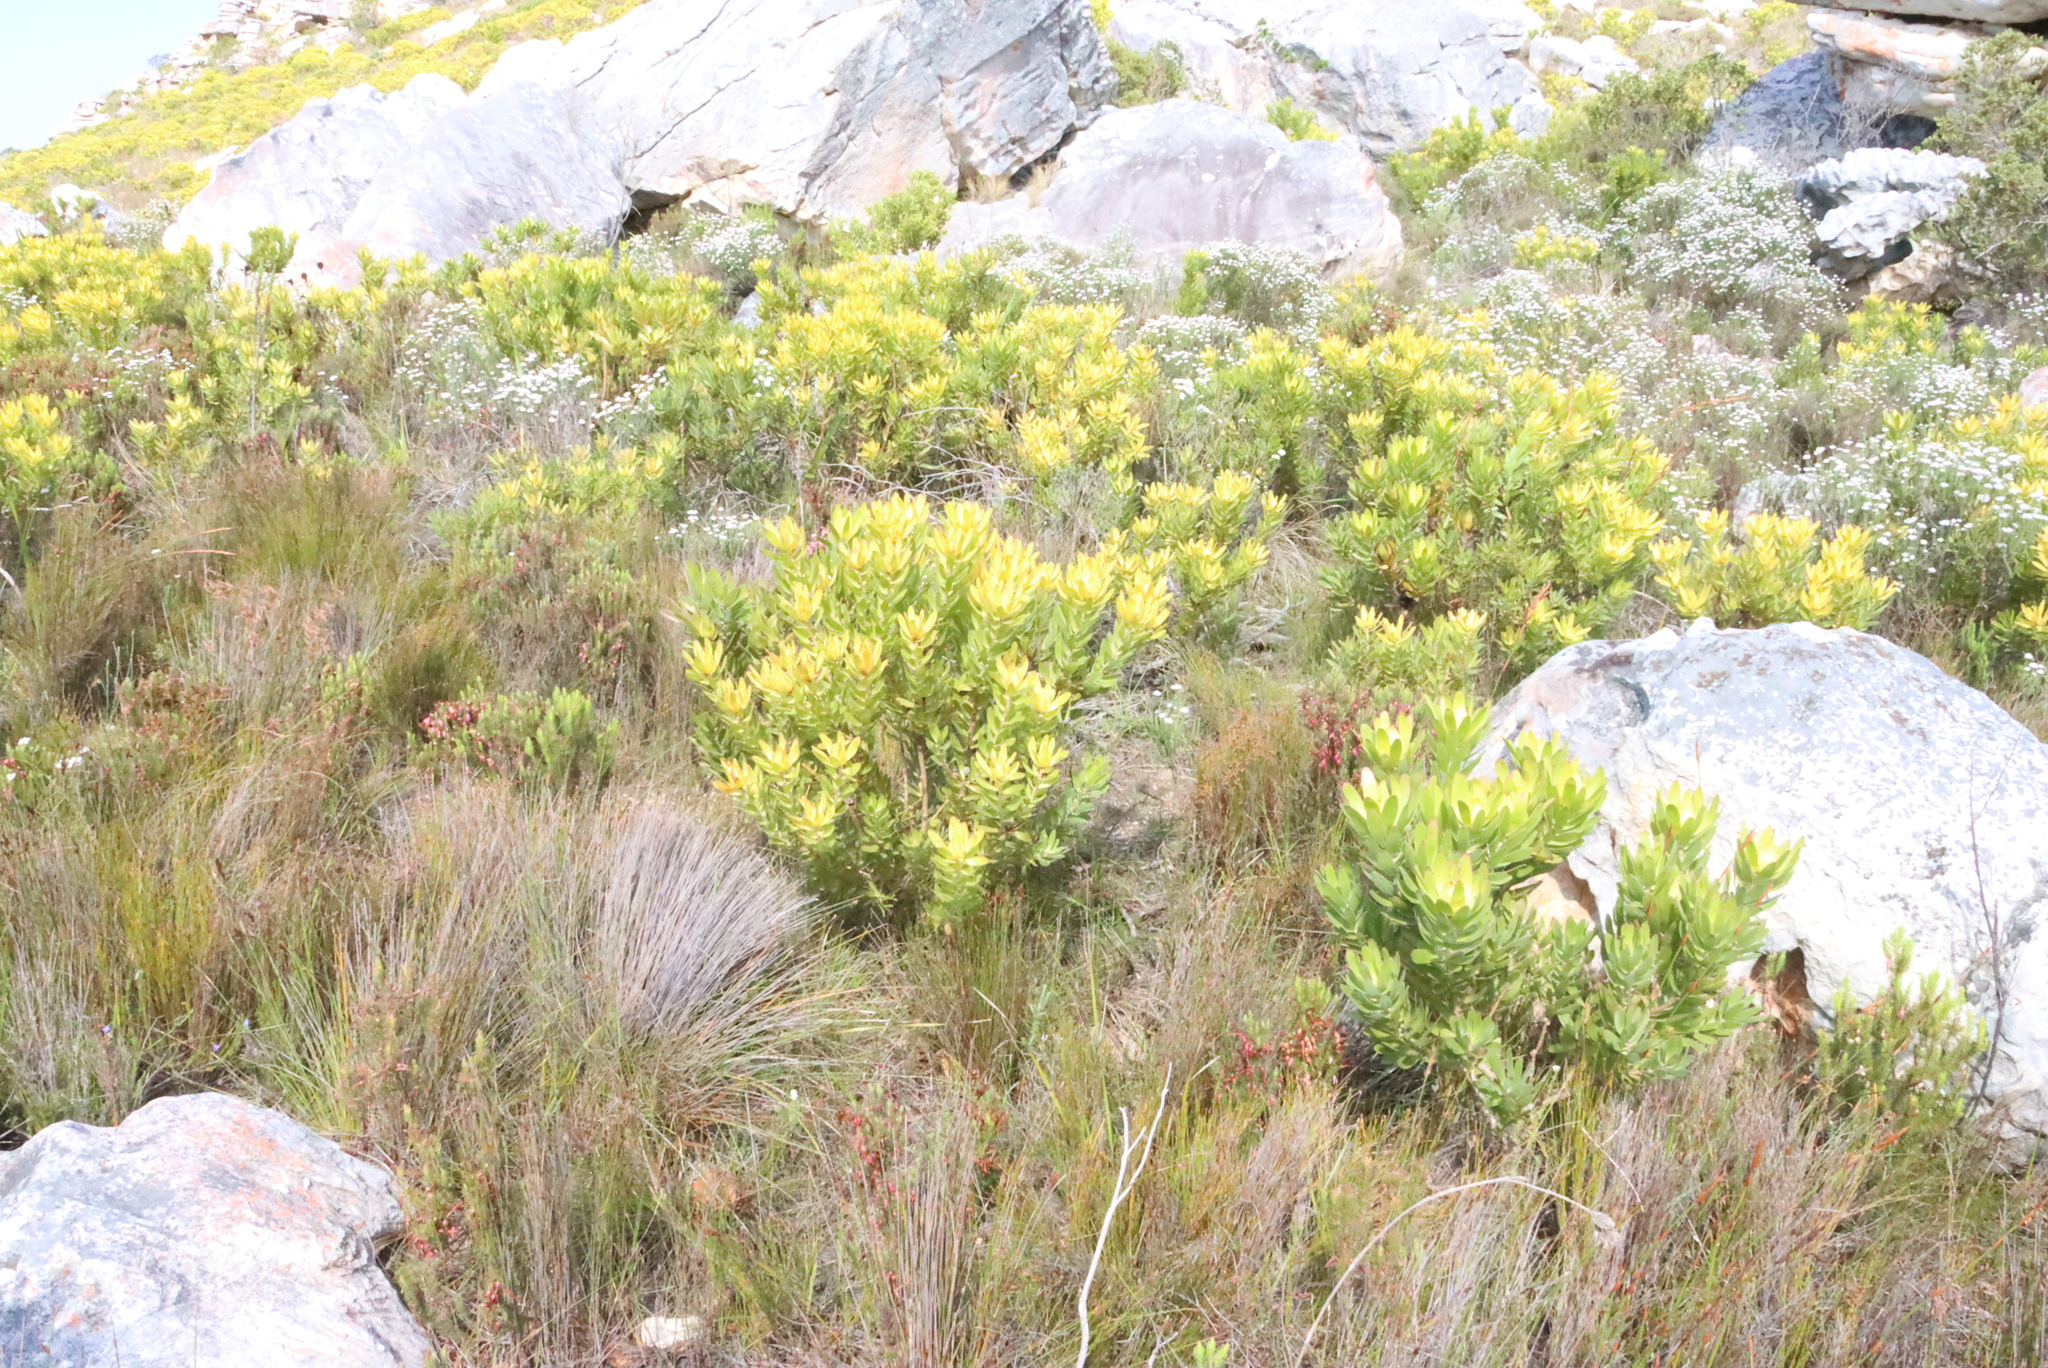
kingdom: Plantae
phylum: Tracheophyta
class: Magnoliopsida
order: Proteales
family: Proteaceae
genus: Leucadendron
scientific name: Leucadendron laureolum
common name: Golden sunshinebush
